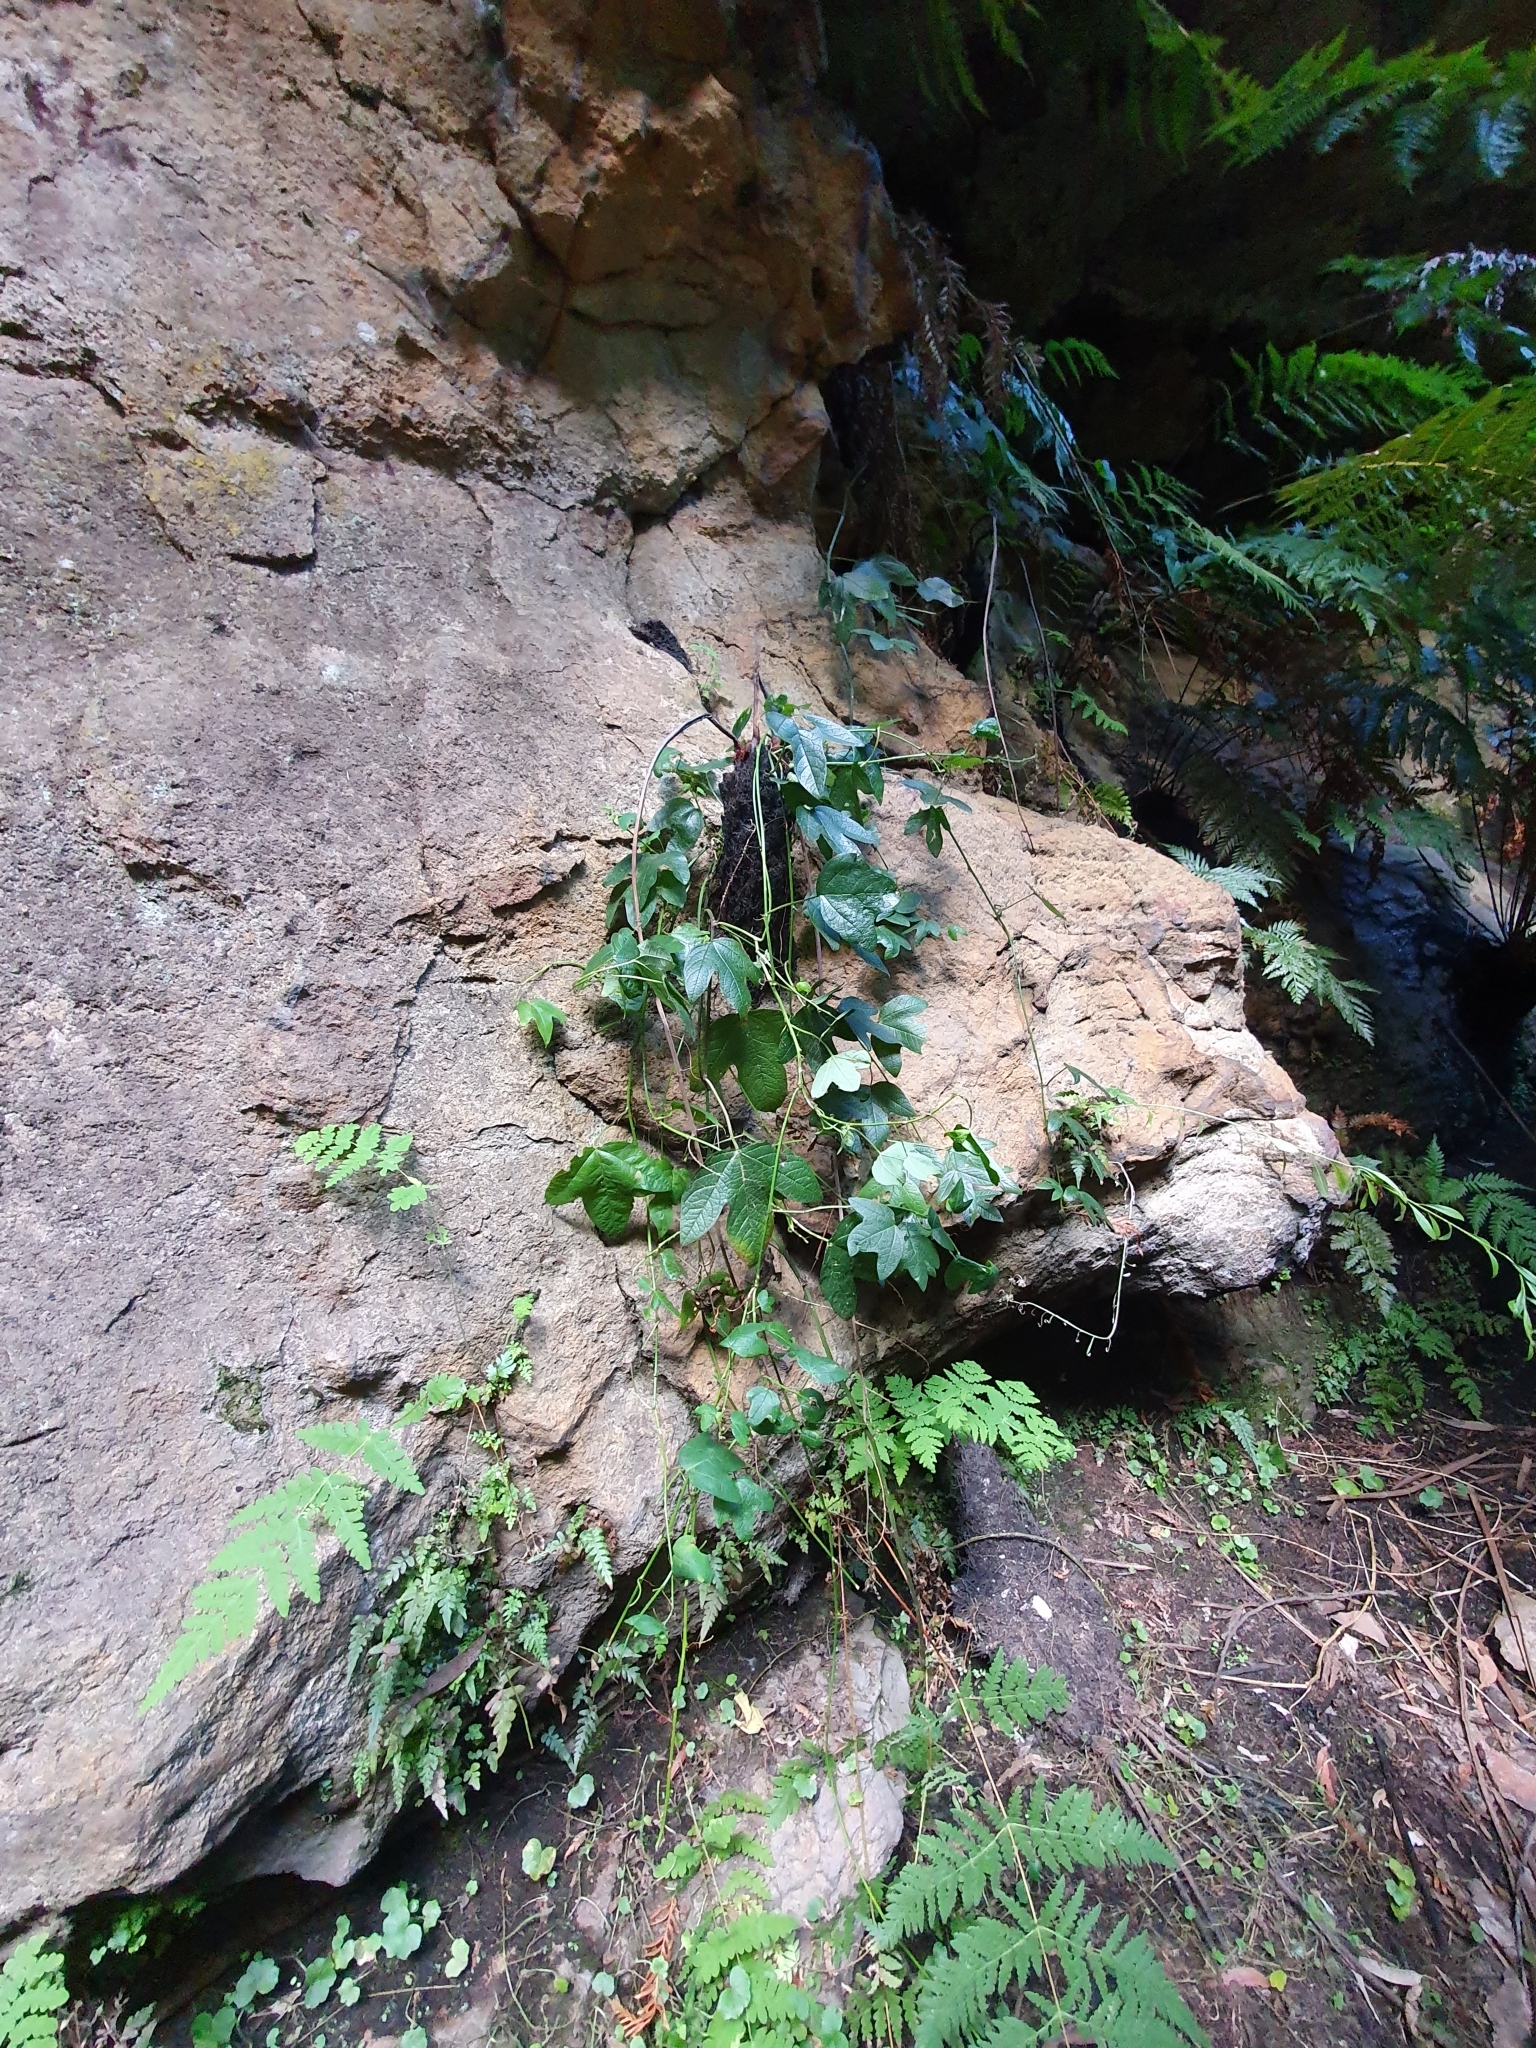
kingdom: Plantae
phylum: Tracheophyta
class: Magnoliopsida
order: Malpighiales
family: Passifloraceae
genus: Passiflora
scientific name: Passiflora cinnabarina
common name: Red passionflower
